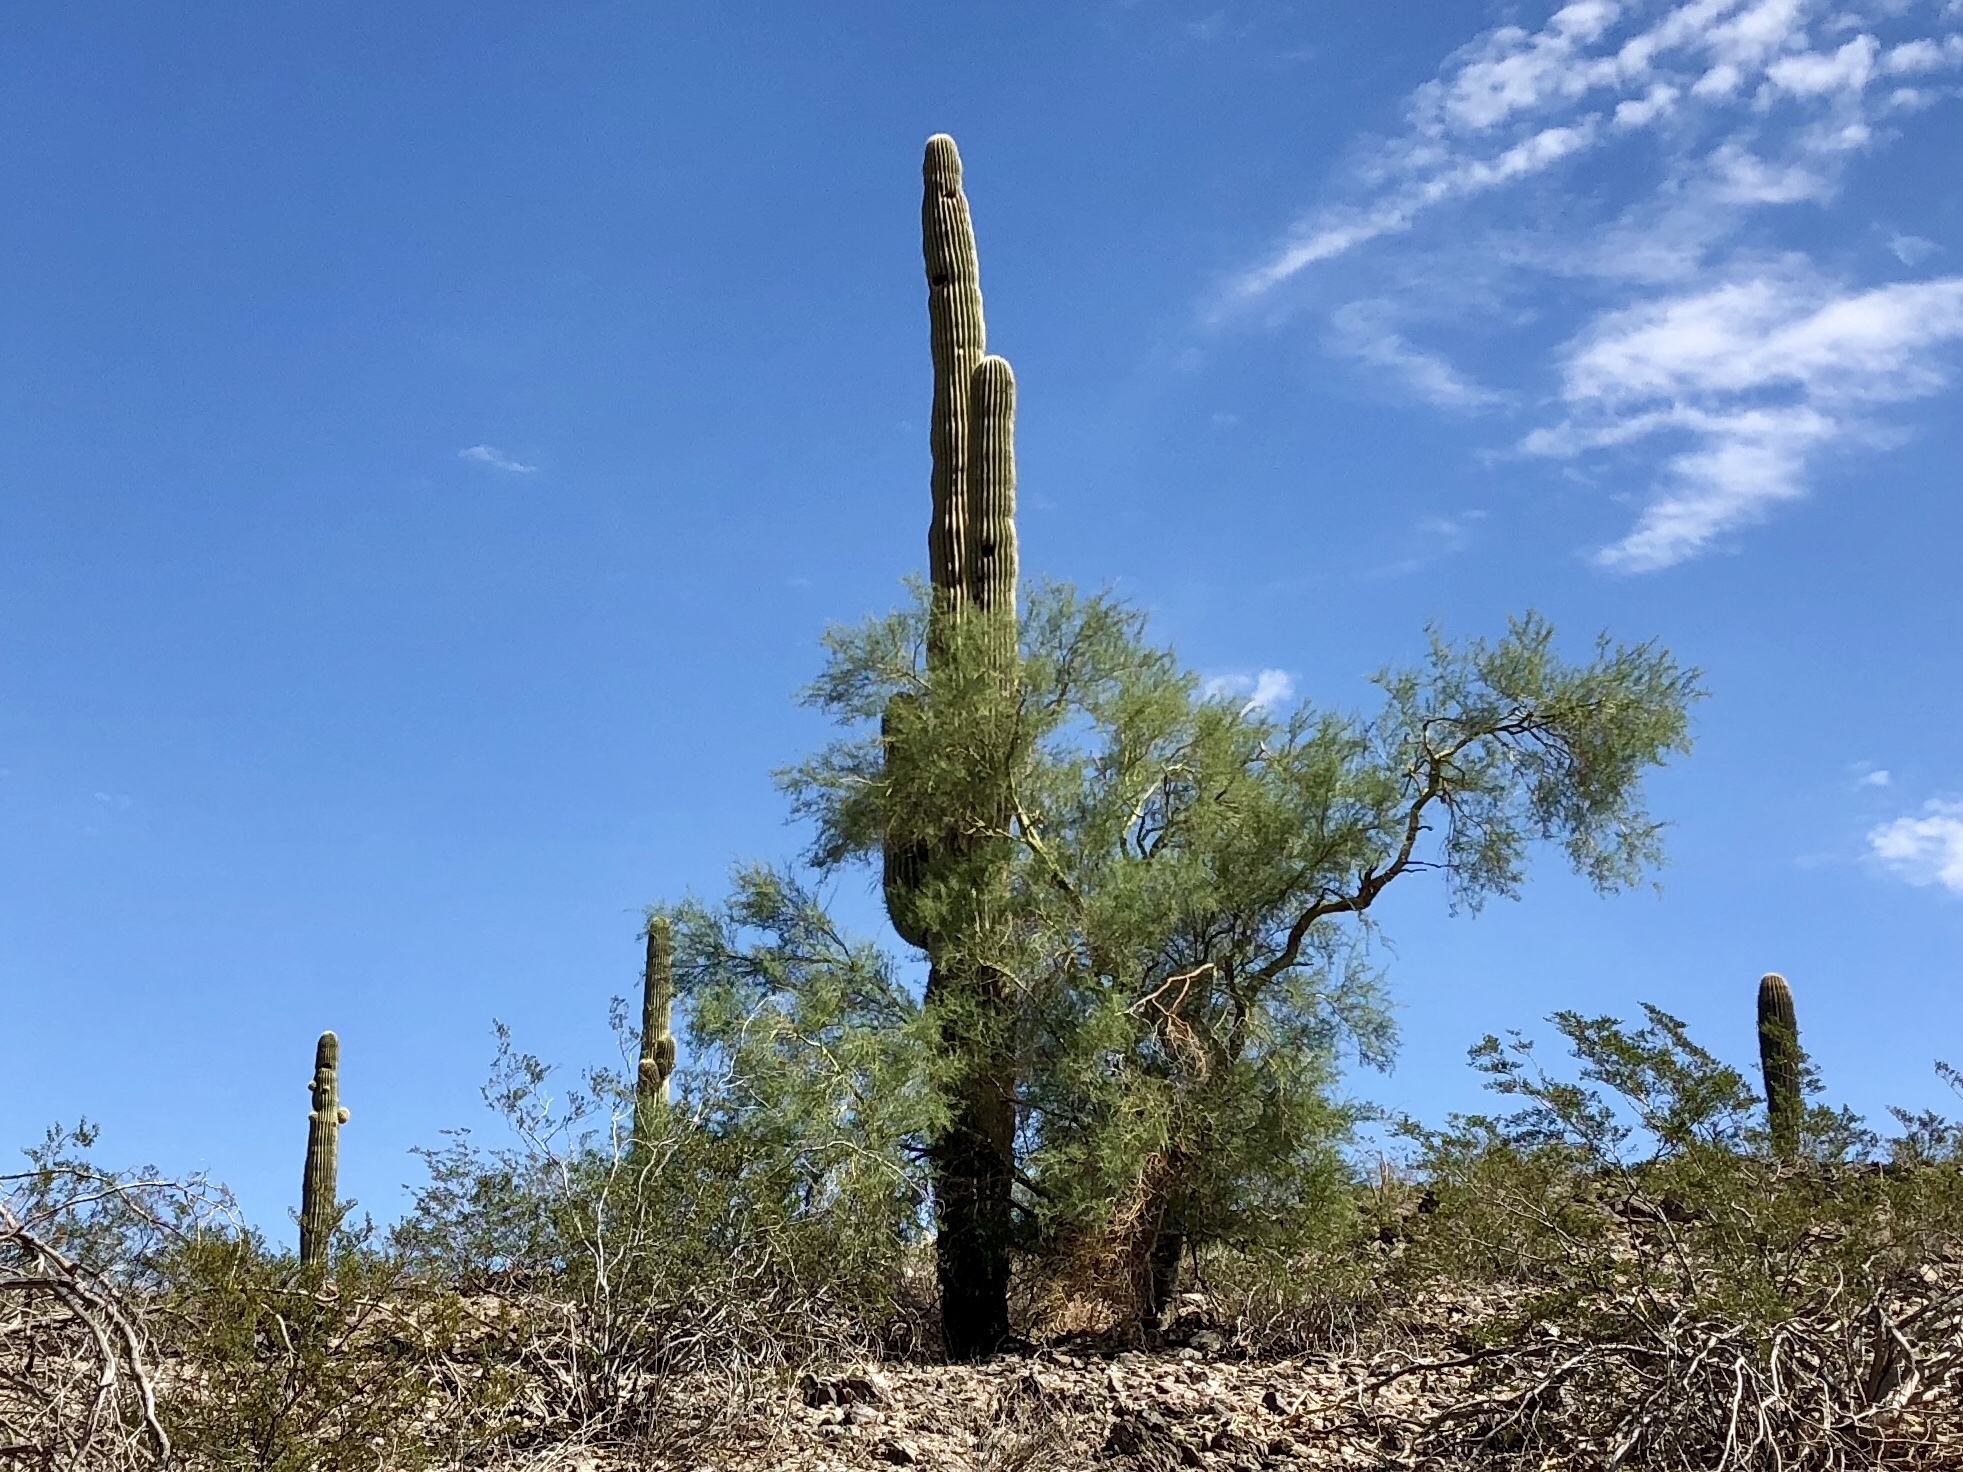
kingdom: Plantae
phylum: Tracheophyta
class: Magnoliopsida
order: Caryophyllales
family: Cactaceae
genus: Carnegiea
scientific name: Carnegiea gigantea
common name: Saguaro
